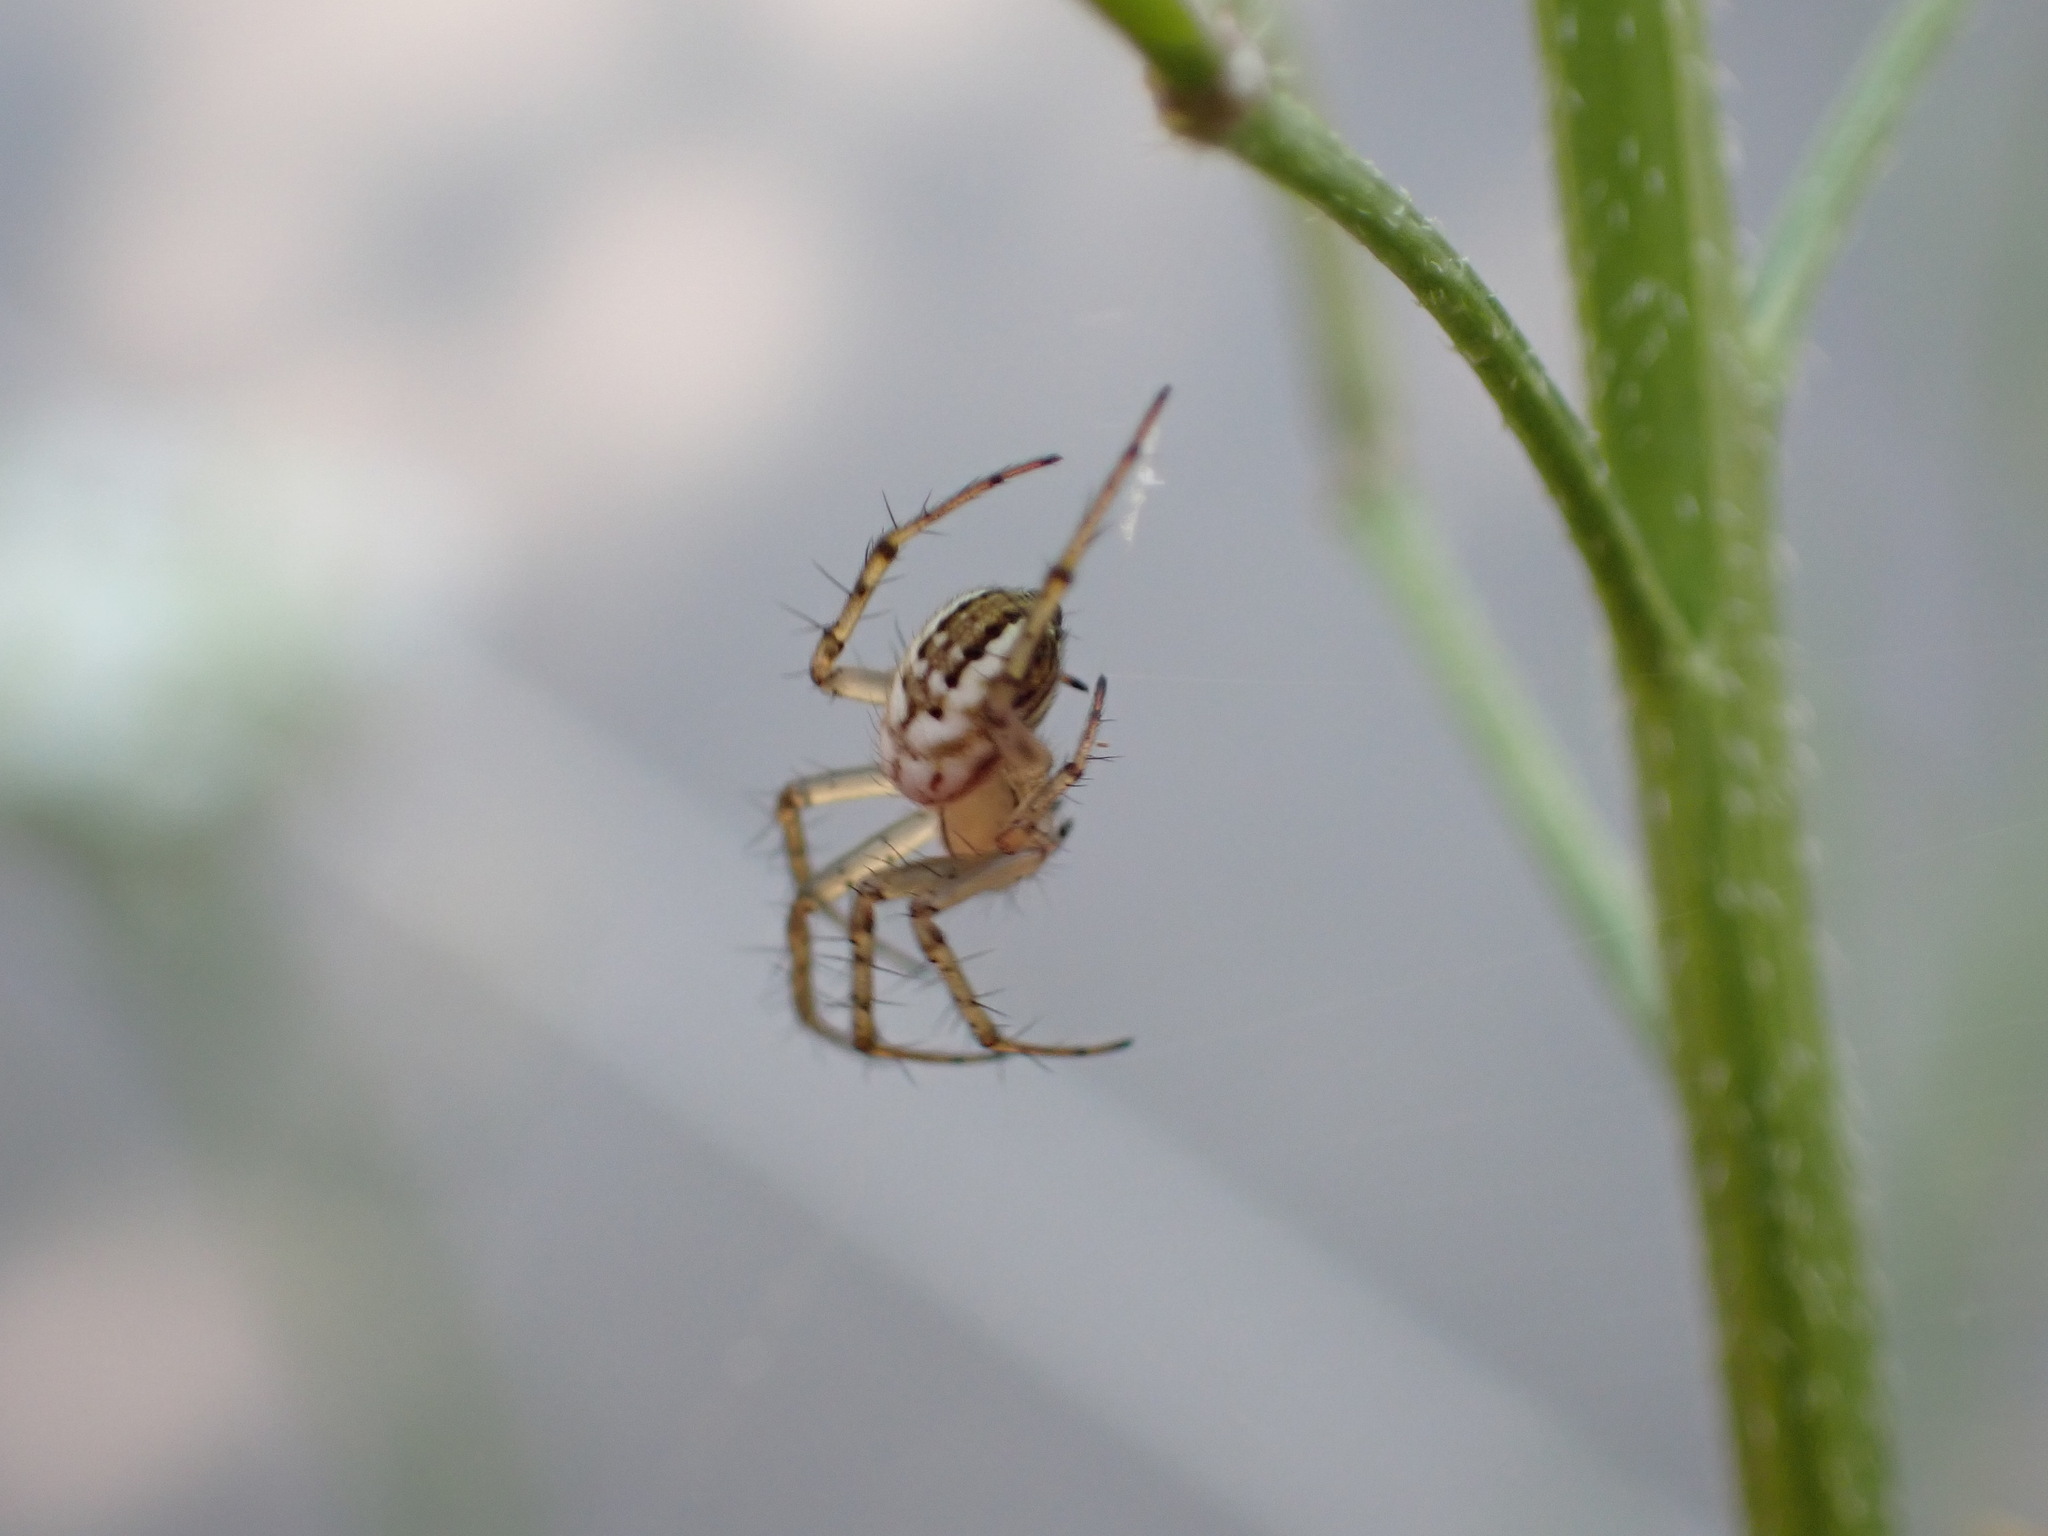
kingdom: Animalia
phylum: Arthropoda
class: Arachnida
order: Araneae
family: Araneidae
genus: Mangora
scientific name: Mangora acalypha
